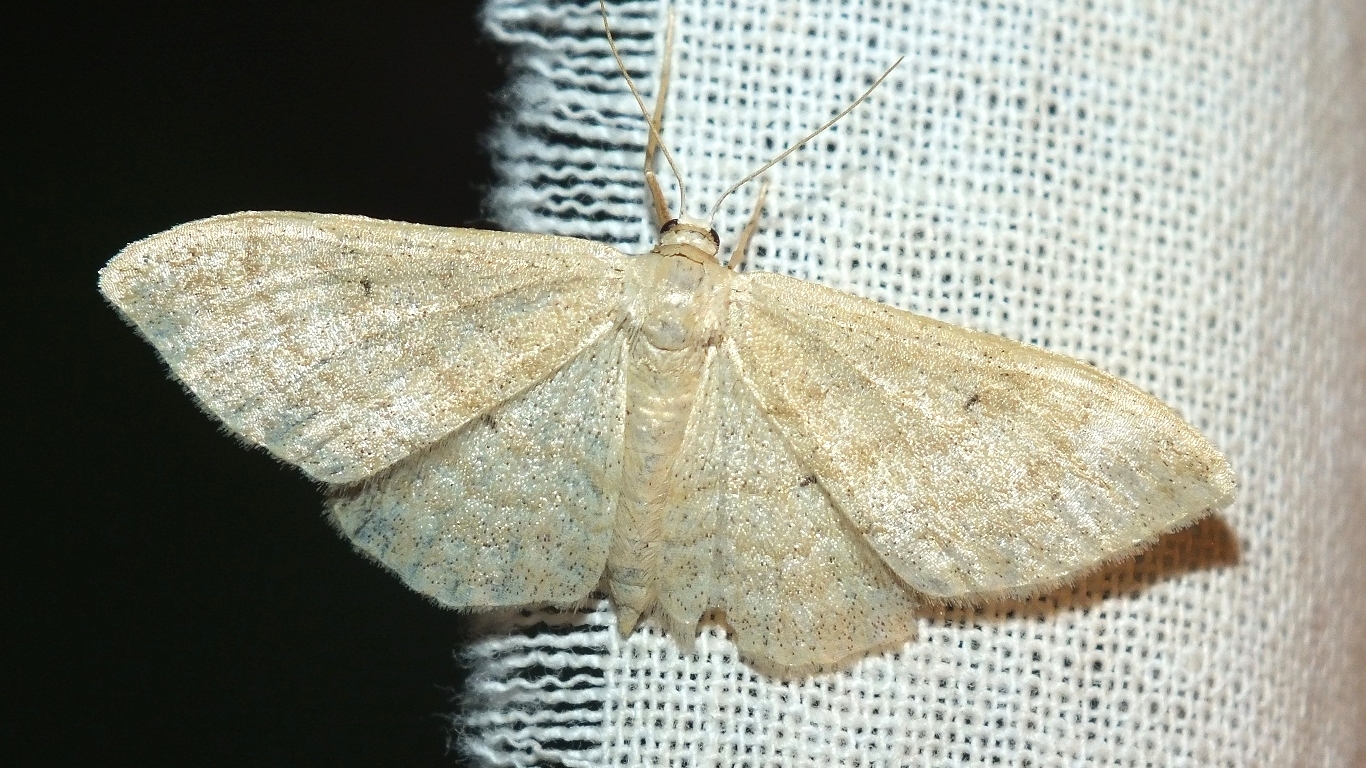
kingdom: Animalia
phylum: Arthropoda
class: Insecta
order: Lepidoptera
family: Geometridae
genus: Idaea
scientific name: Idaea maritimaria
